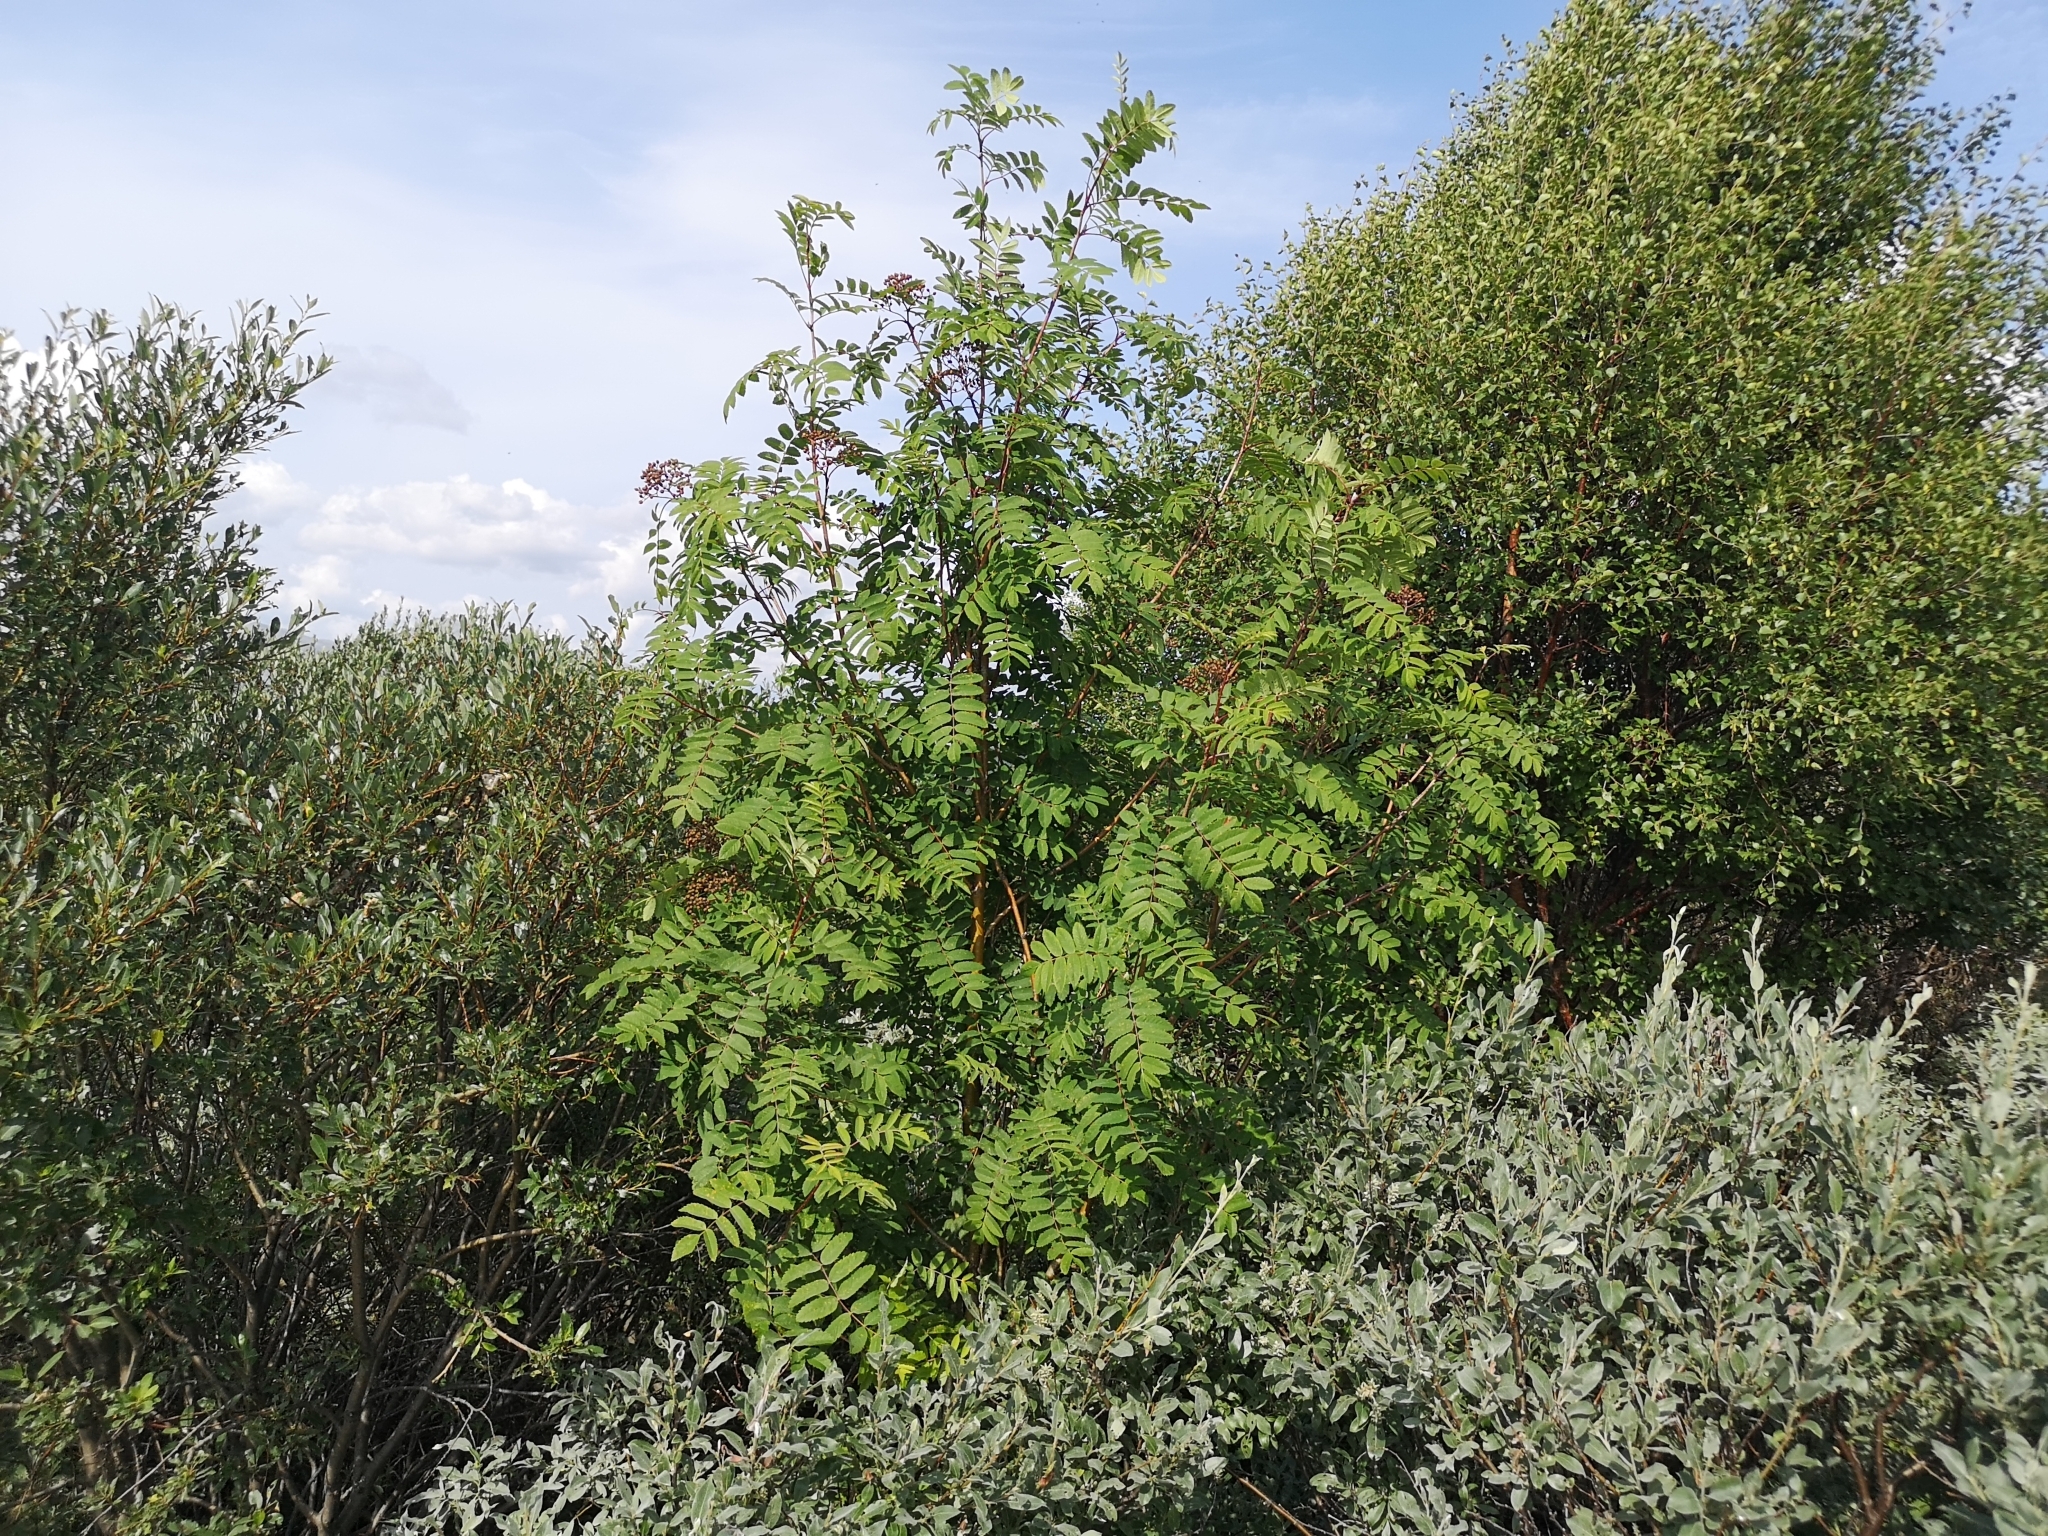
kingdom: Plantae
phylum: Tracheophyta
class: Magnoliopsida
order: Rosales
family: Rosaceae
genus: Sorbus
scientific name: Sorbus aucuparia
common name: Rowan
